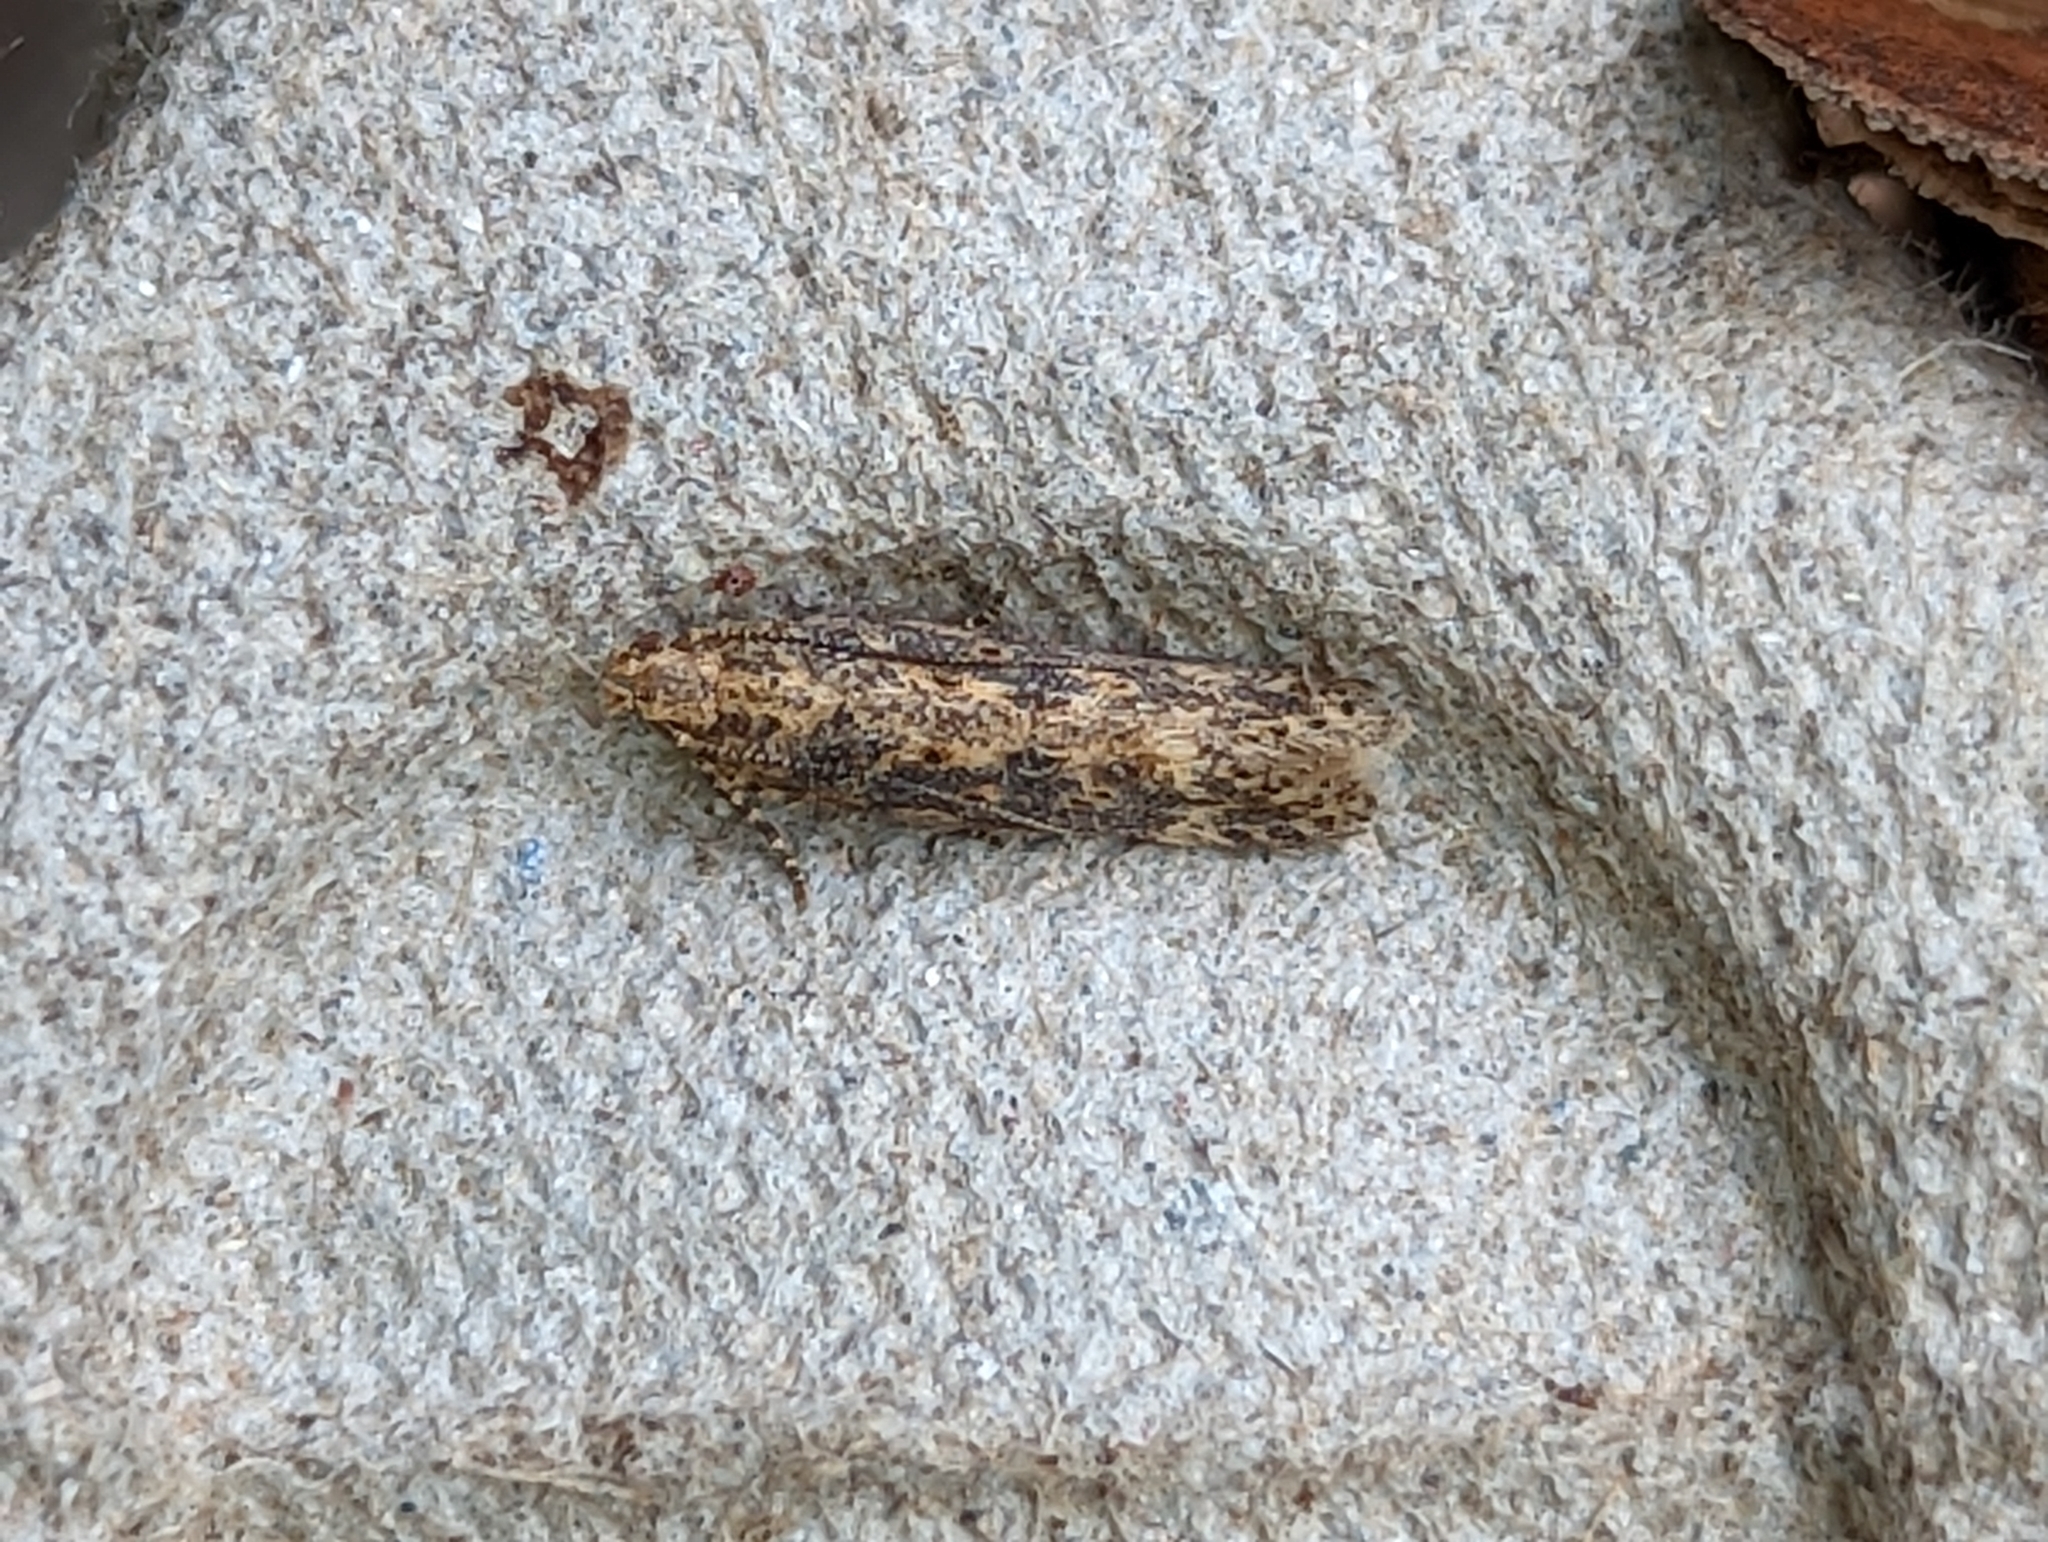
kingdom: Animalia
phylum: Arthropoda
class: Insecta
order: Lepidoptera
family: Gelechiidae
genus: Scrobipalpa
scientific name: Scrobipalpa ocellatella
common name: Beet moth
